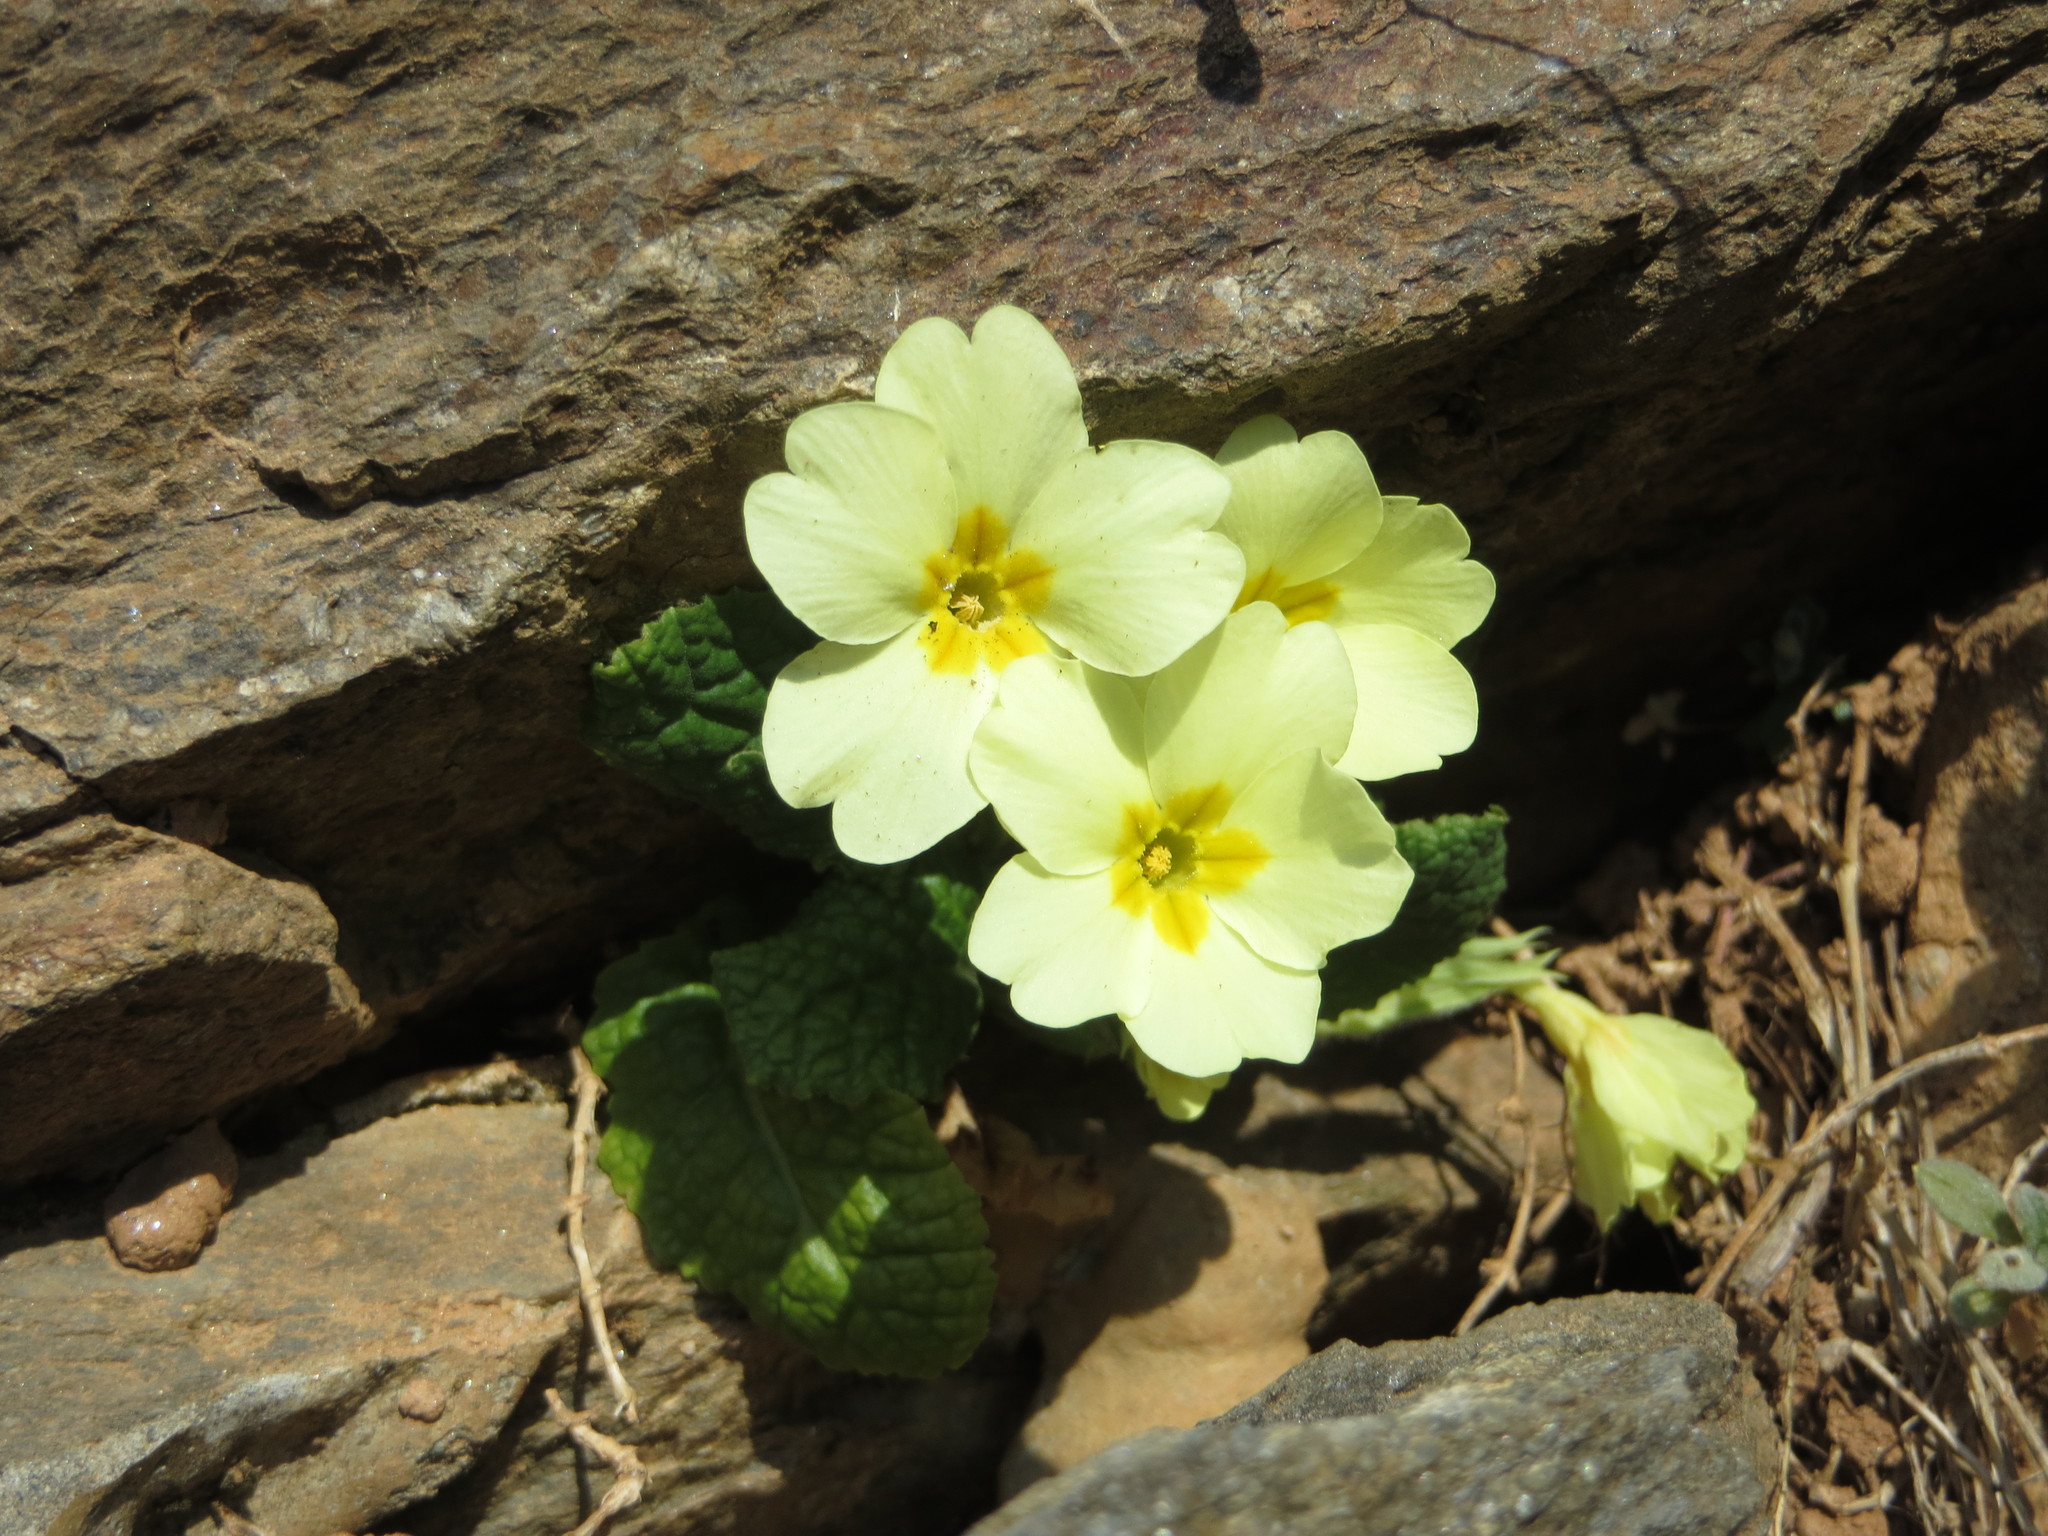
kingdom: Plantae
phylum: Tracheophyta
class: Magnoliopsida
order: Ericales
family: Primulaceae
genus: Primula
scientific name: Primula vulgaris
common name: Primrose
